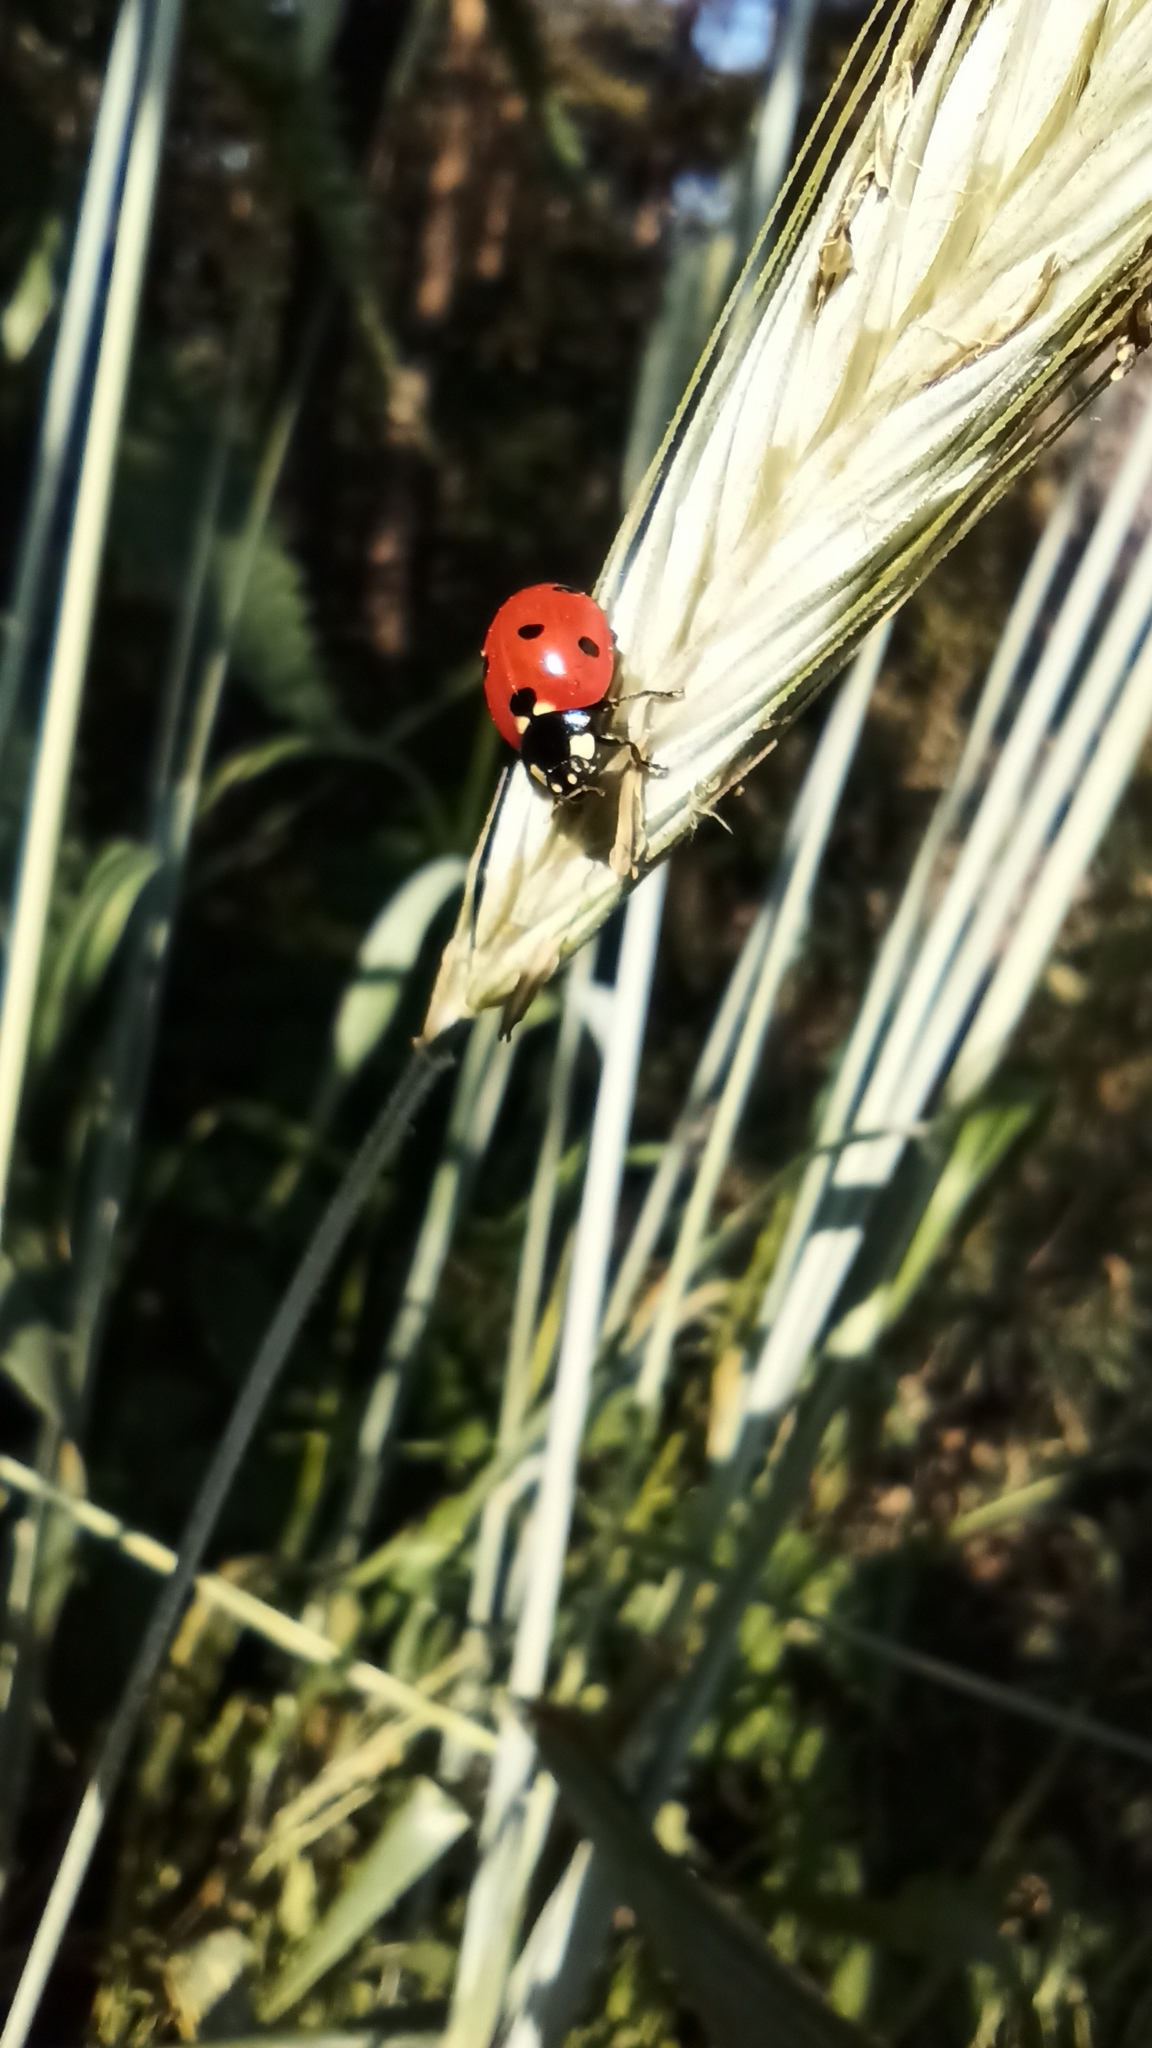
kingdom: Animalia
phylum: Arthropoda
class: Insecta
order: Coleoptera
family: Coccinellidae
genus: Coccinella
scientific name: Coccinella septempunctata
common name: Sevenspotted lady beetle
